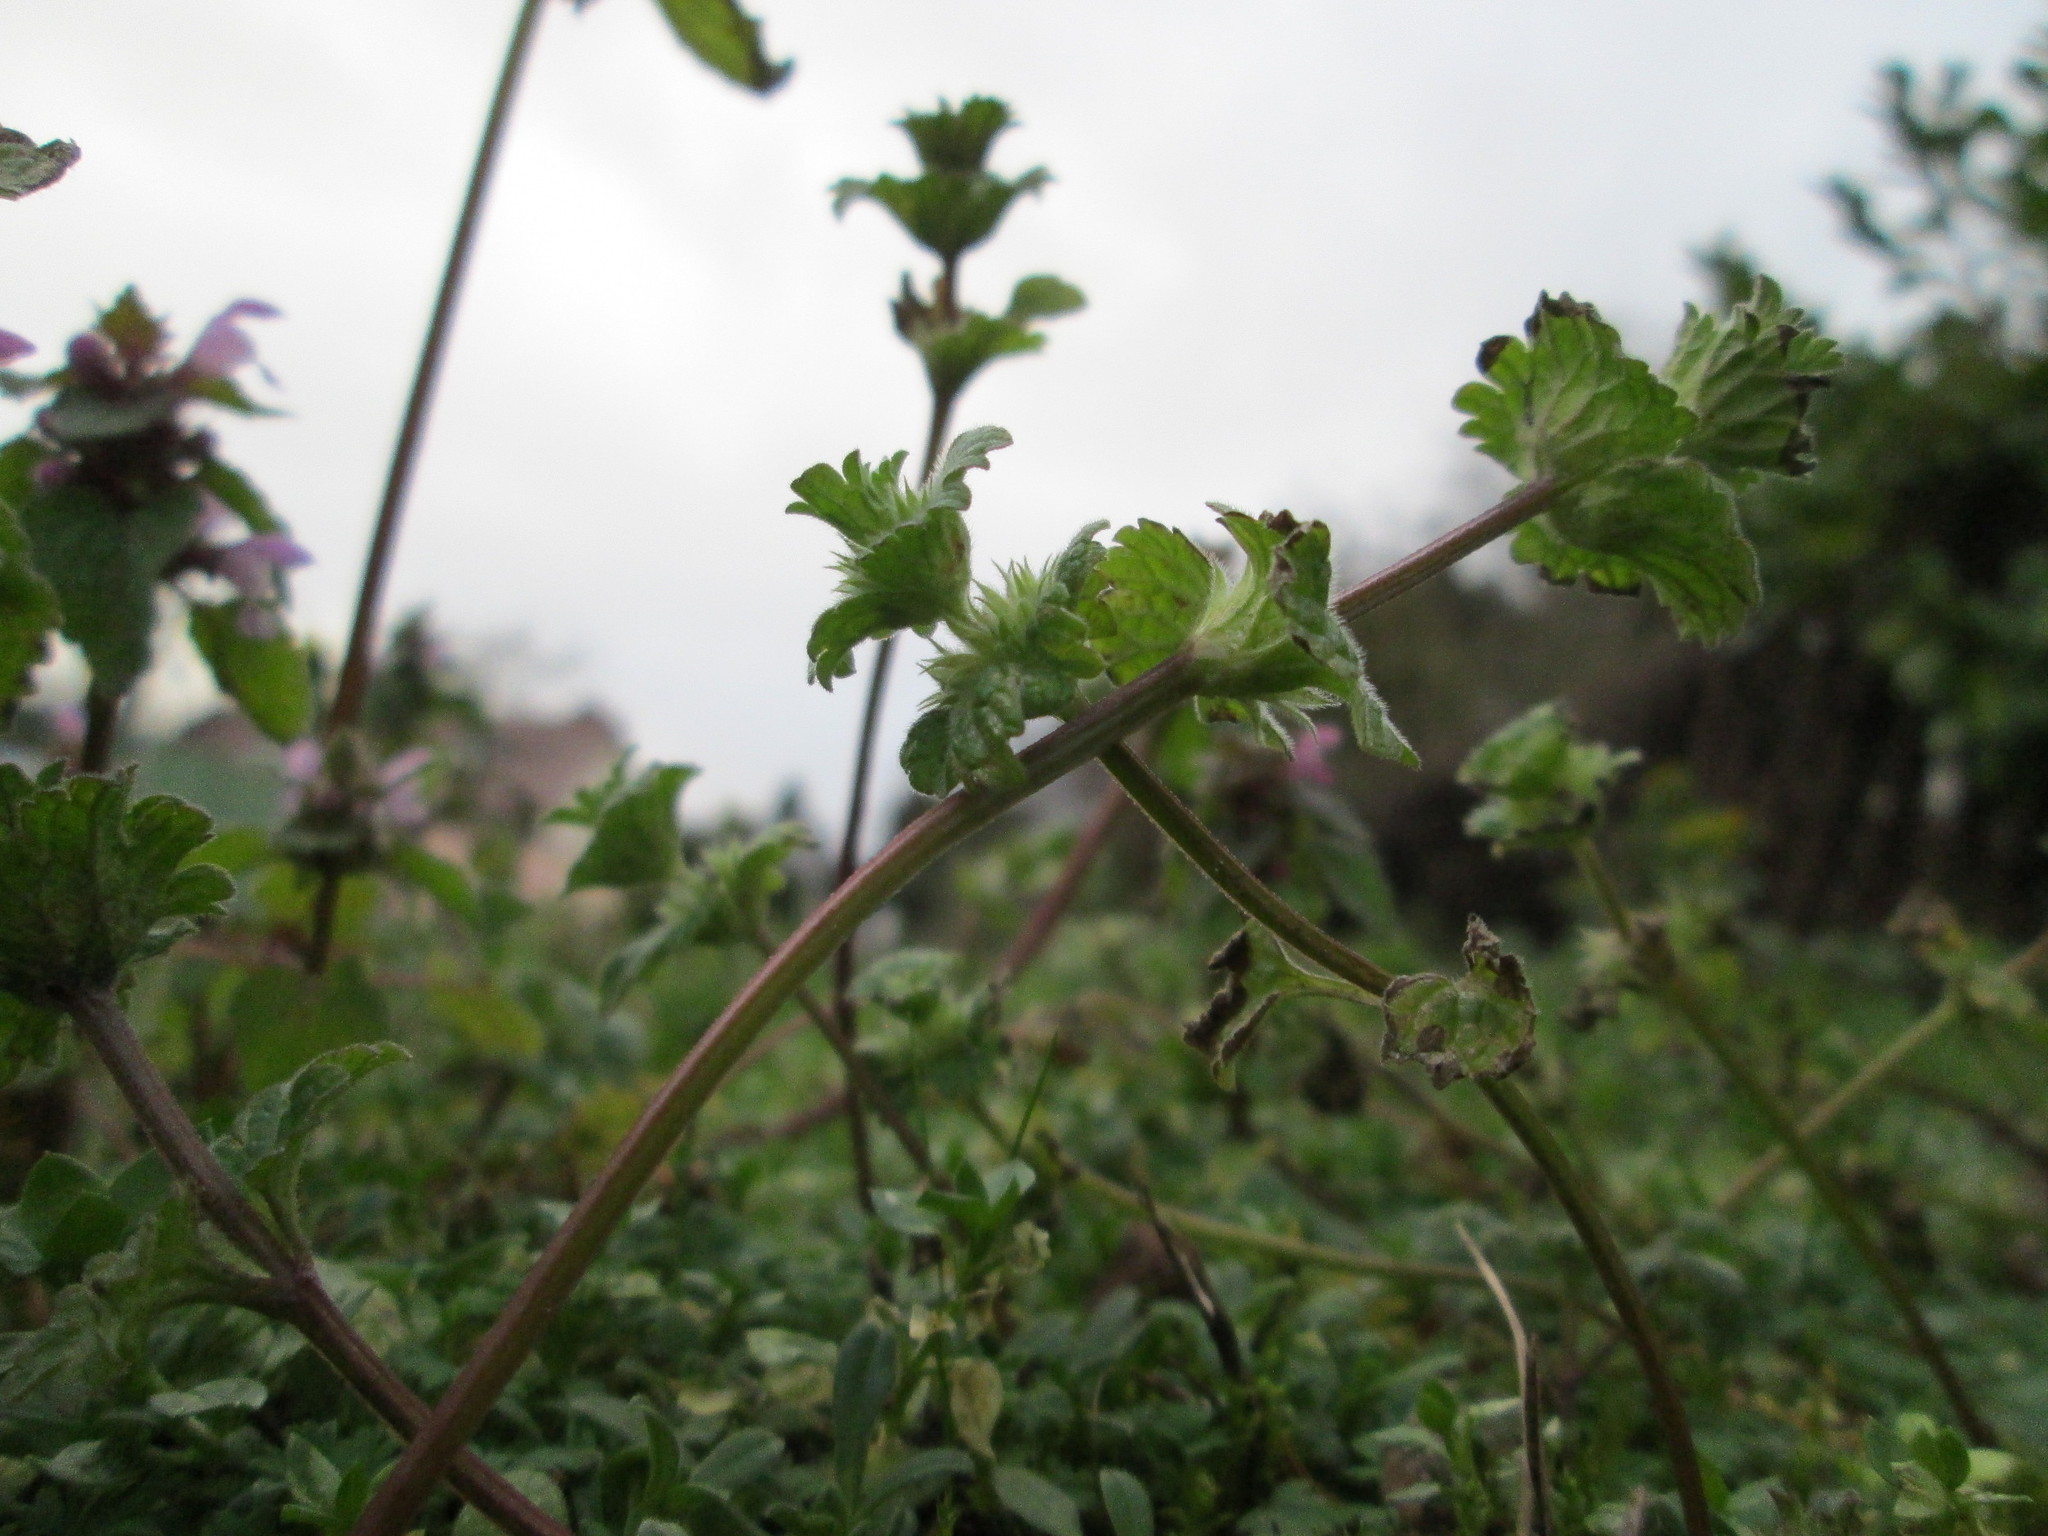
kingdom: Plantae
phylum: Tracheophyta
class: Magnoliopsida
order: Lamiales
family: Lamiaceae
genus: Lamium
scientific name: Lamium amplexicaule
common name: Henbit dead-nettle
